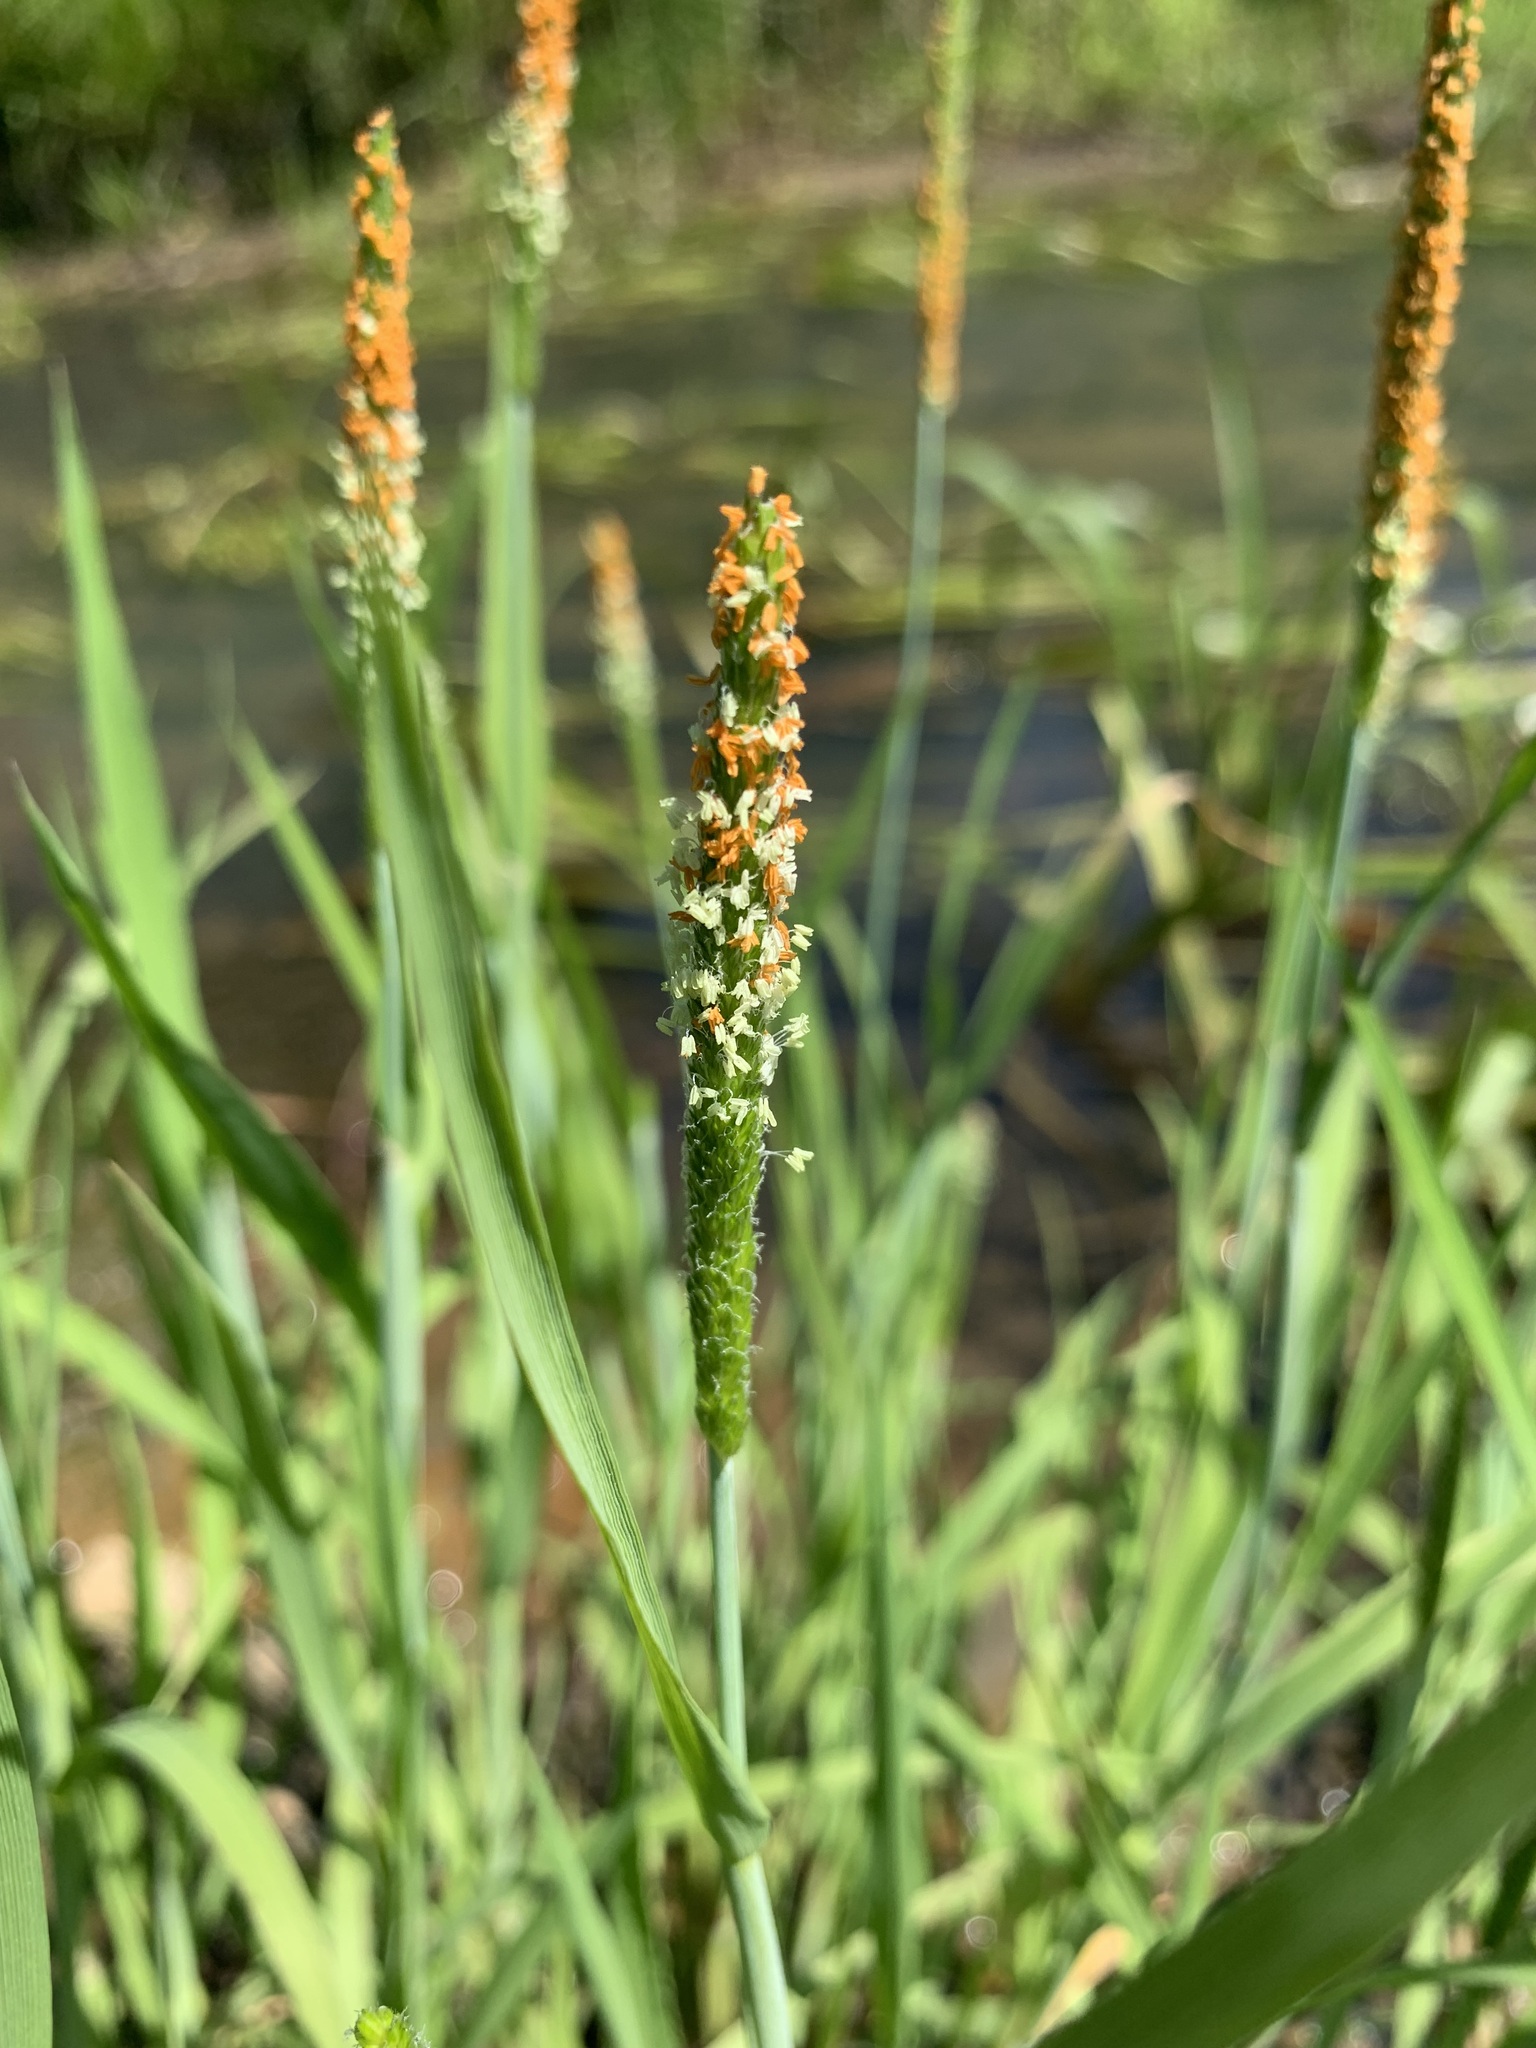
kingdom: Plantae
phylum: Tracheophyta
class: Liliopsida
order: Poales
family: Poaceae
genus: Alopecurus
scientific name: Alopecurus aequalis
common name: Orange foxtail
